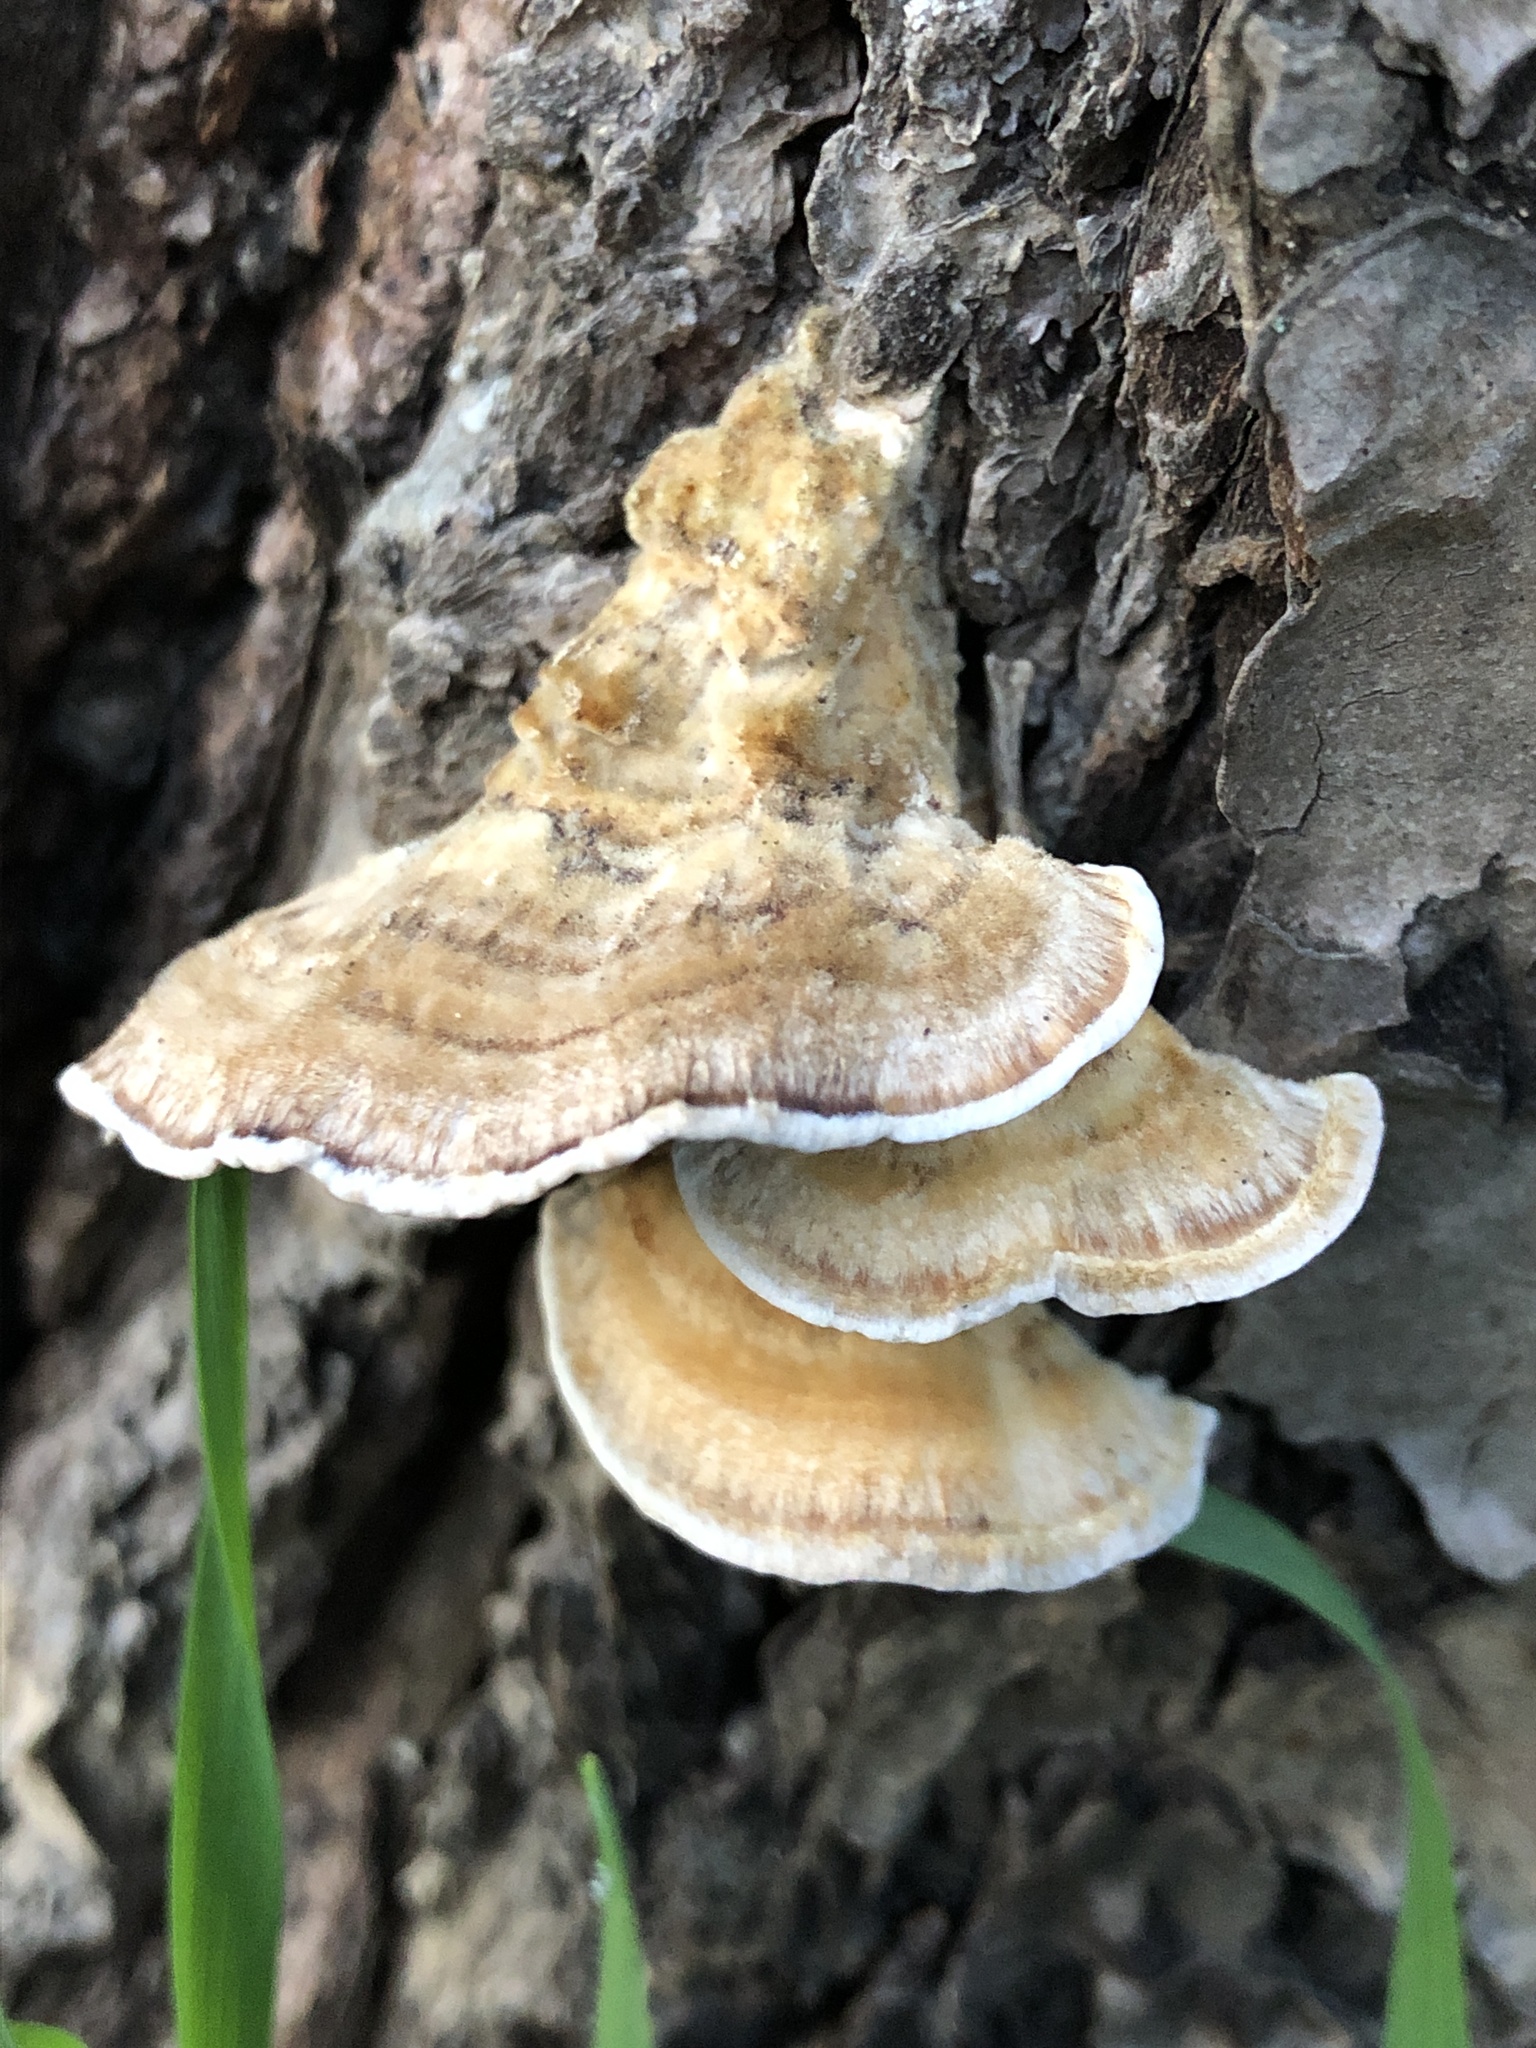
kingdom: Fungi
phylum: Basidiomycota
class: Agaricomycetes
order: Polyporales
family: Cerrenaceae
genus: Cerrena
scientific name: Cerrena unicolor
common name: Mossy maze polypore
